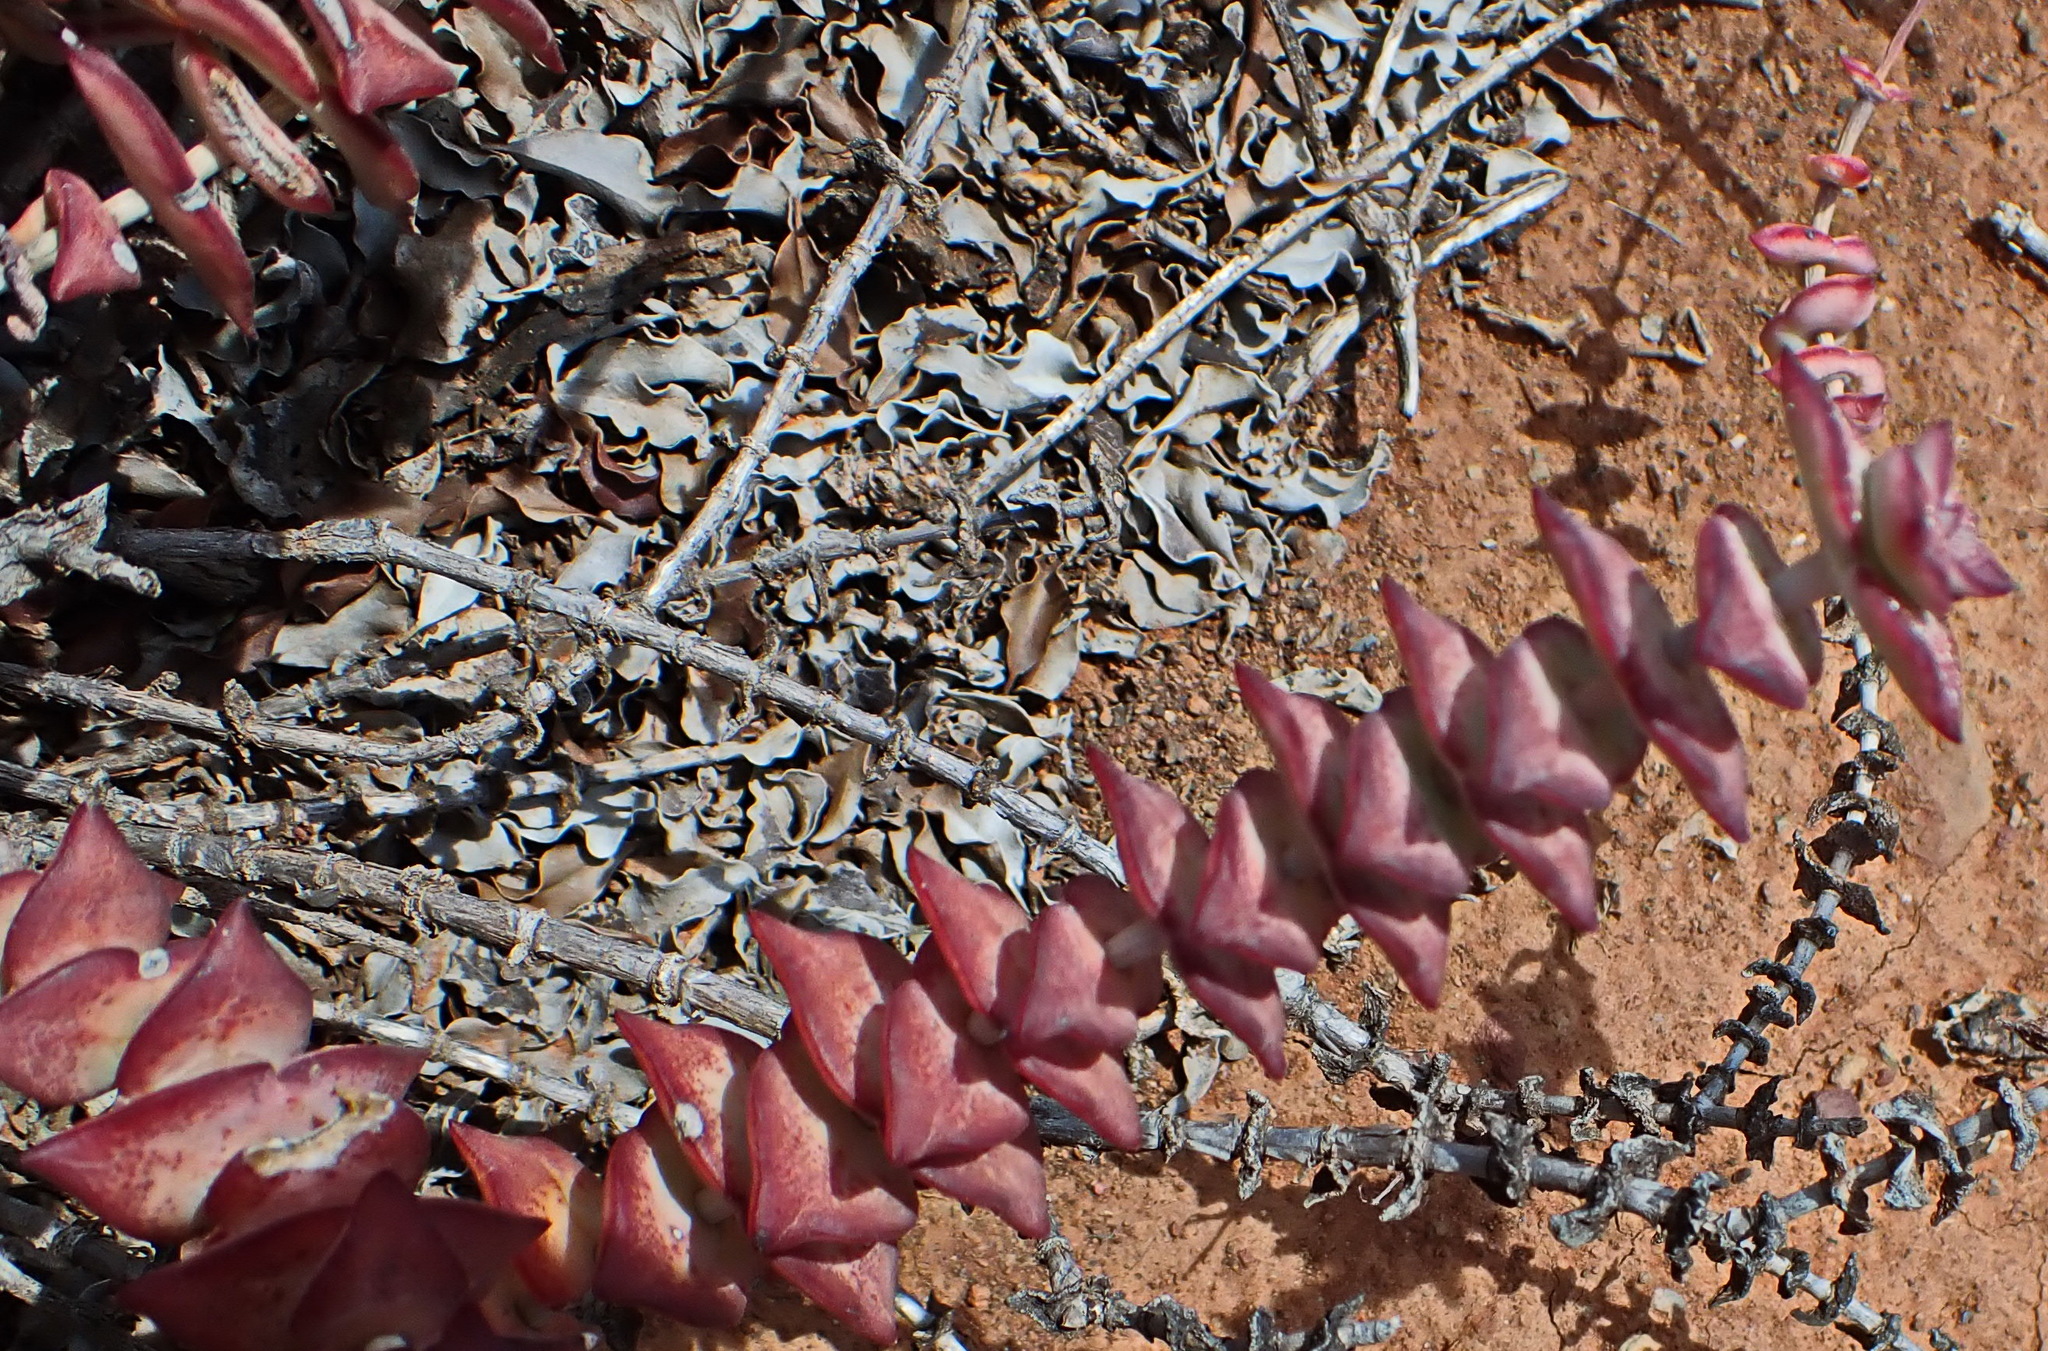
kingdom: Plantae
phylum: Tracheophyta
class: Magnoliopsida
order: Saxifragales
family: Crassulaceae
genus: Crassula
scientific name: Crassula perforata
